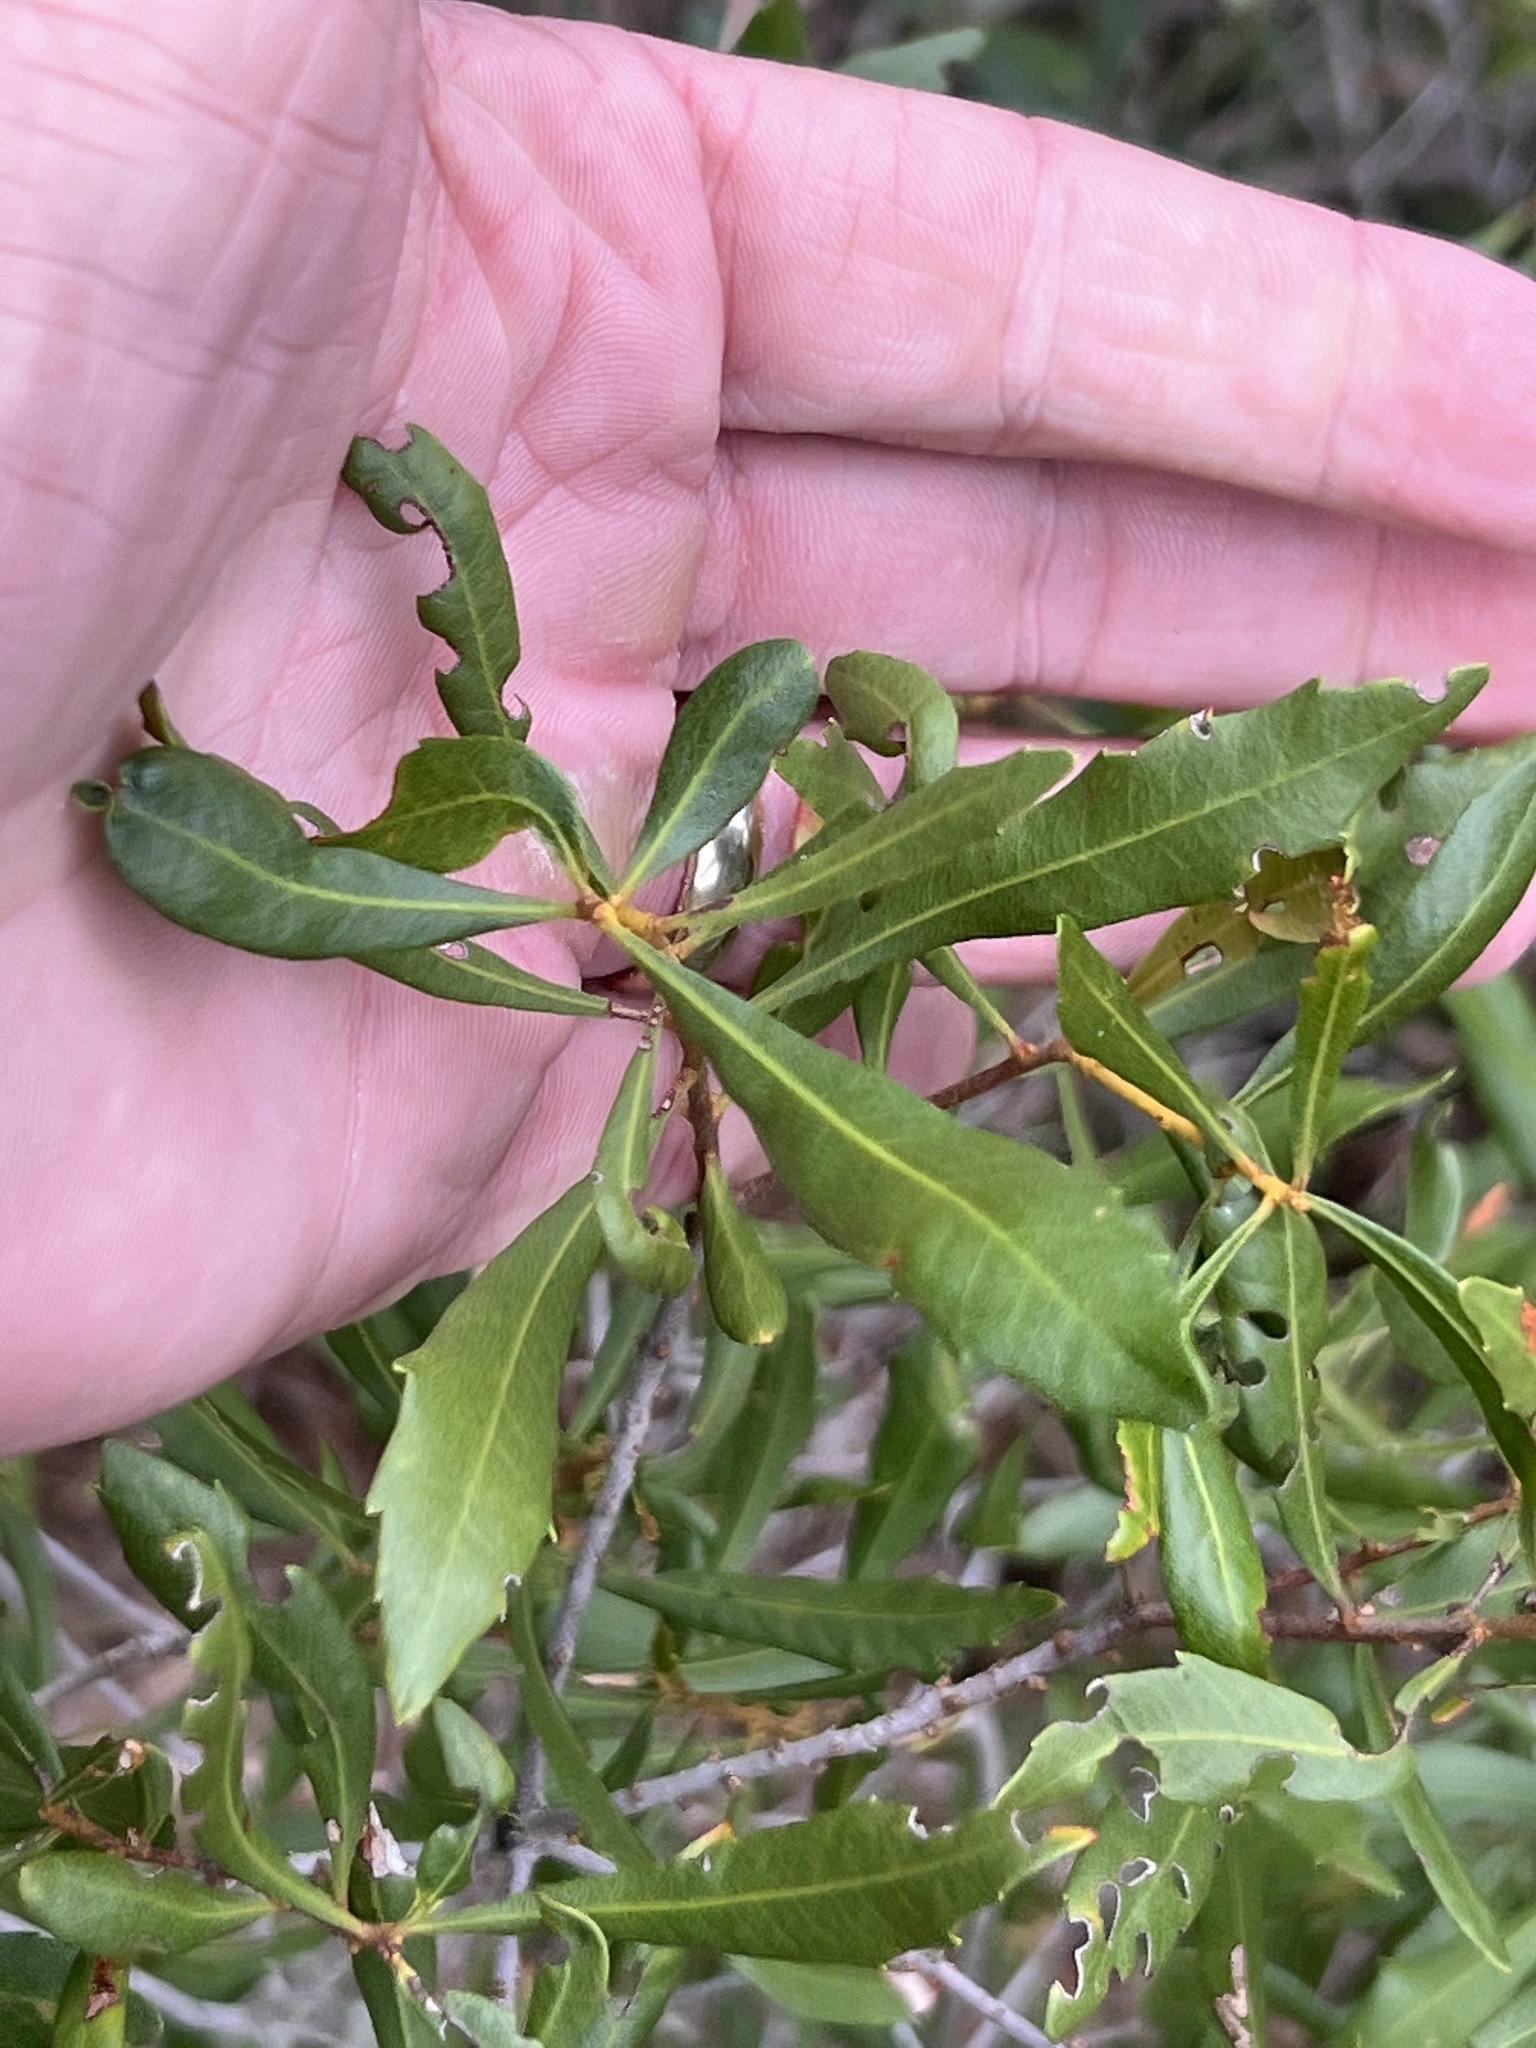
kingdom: Plantae
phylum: Tracheophyta
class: Magnoliopsida
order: Fagales
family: Myricaceae
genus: Morella
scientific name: Morella cerifera
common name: Wax myrtle
